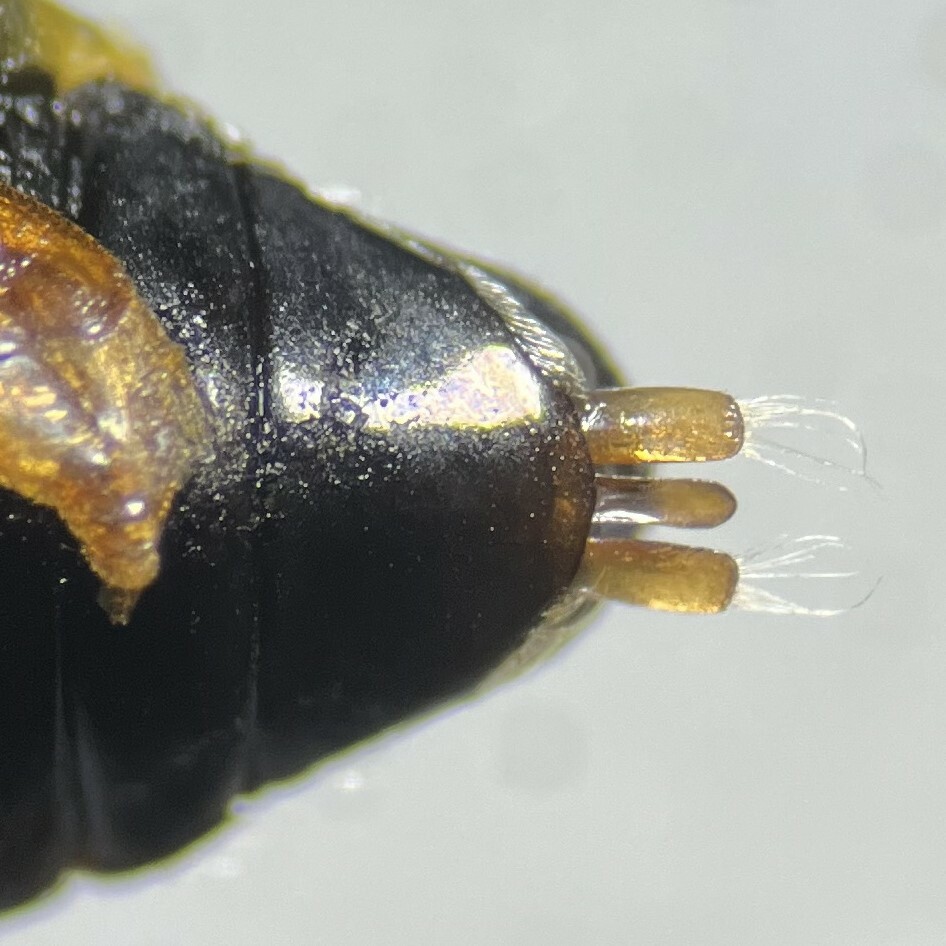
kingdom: Animalia
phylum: Arthropoda
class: Insecta
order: Coleoptera
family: Gyrinidae
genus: Gyrinus
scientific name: Gyrinus parcus
